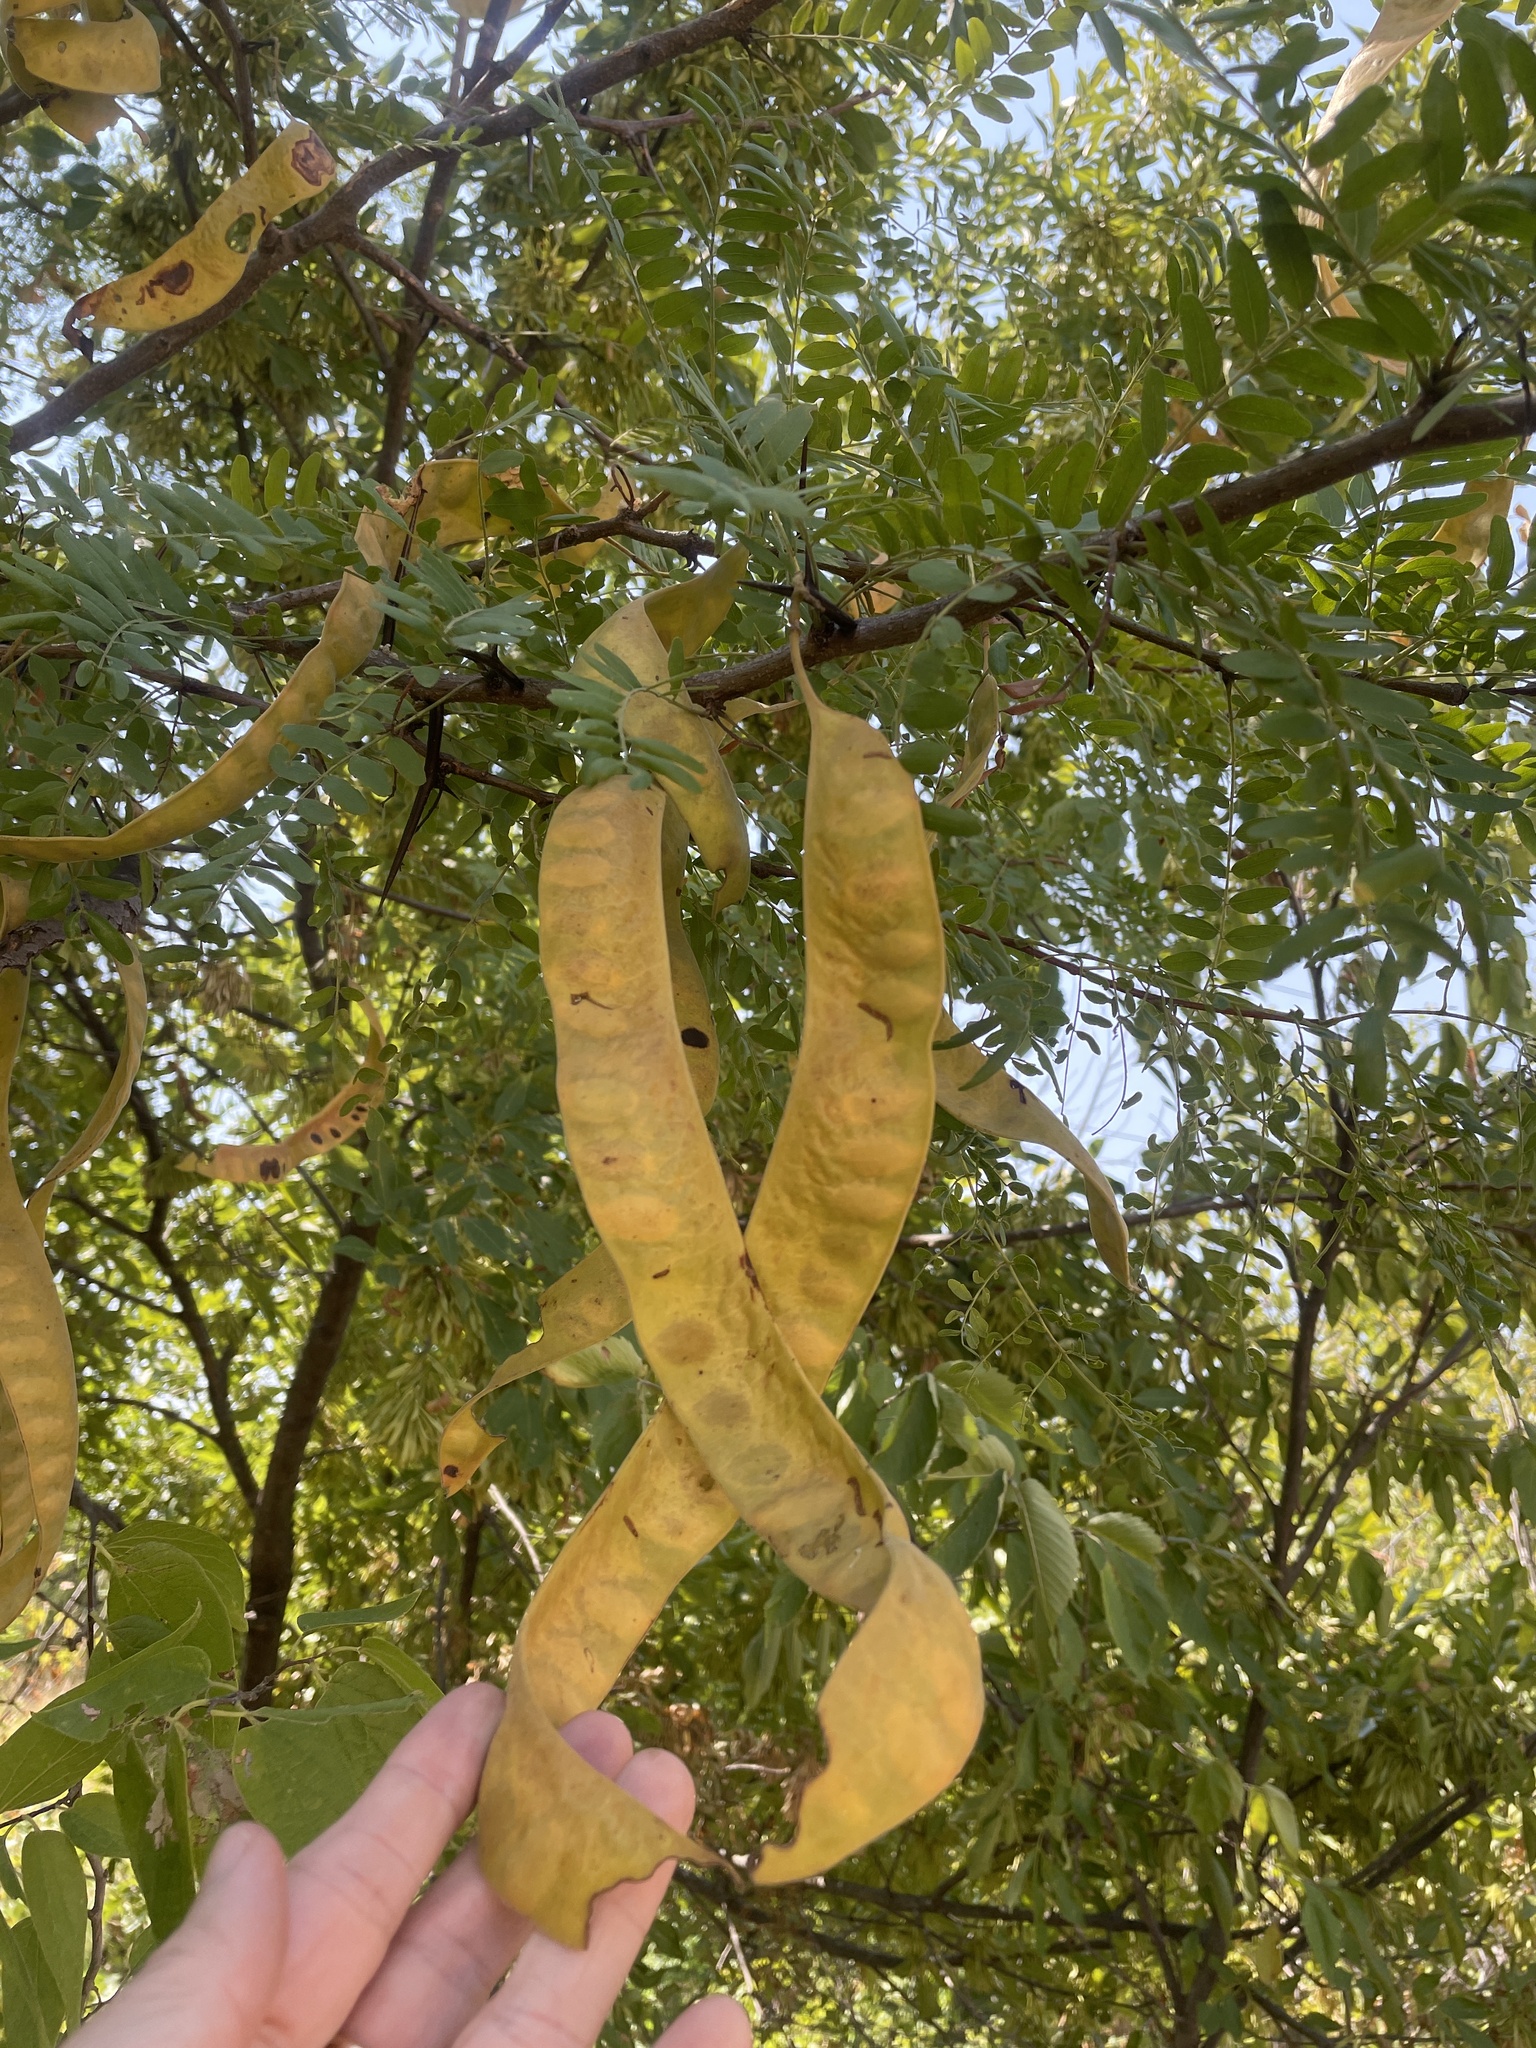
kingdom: Plantae
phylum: Tracheophyta
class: Magnoliopsida
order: Fabales
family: Fabaceae
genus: Gleditsia
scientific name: Gleditsia triacanthos
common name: Common honeylocust
